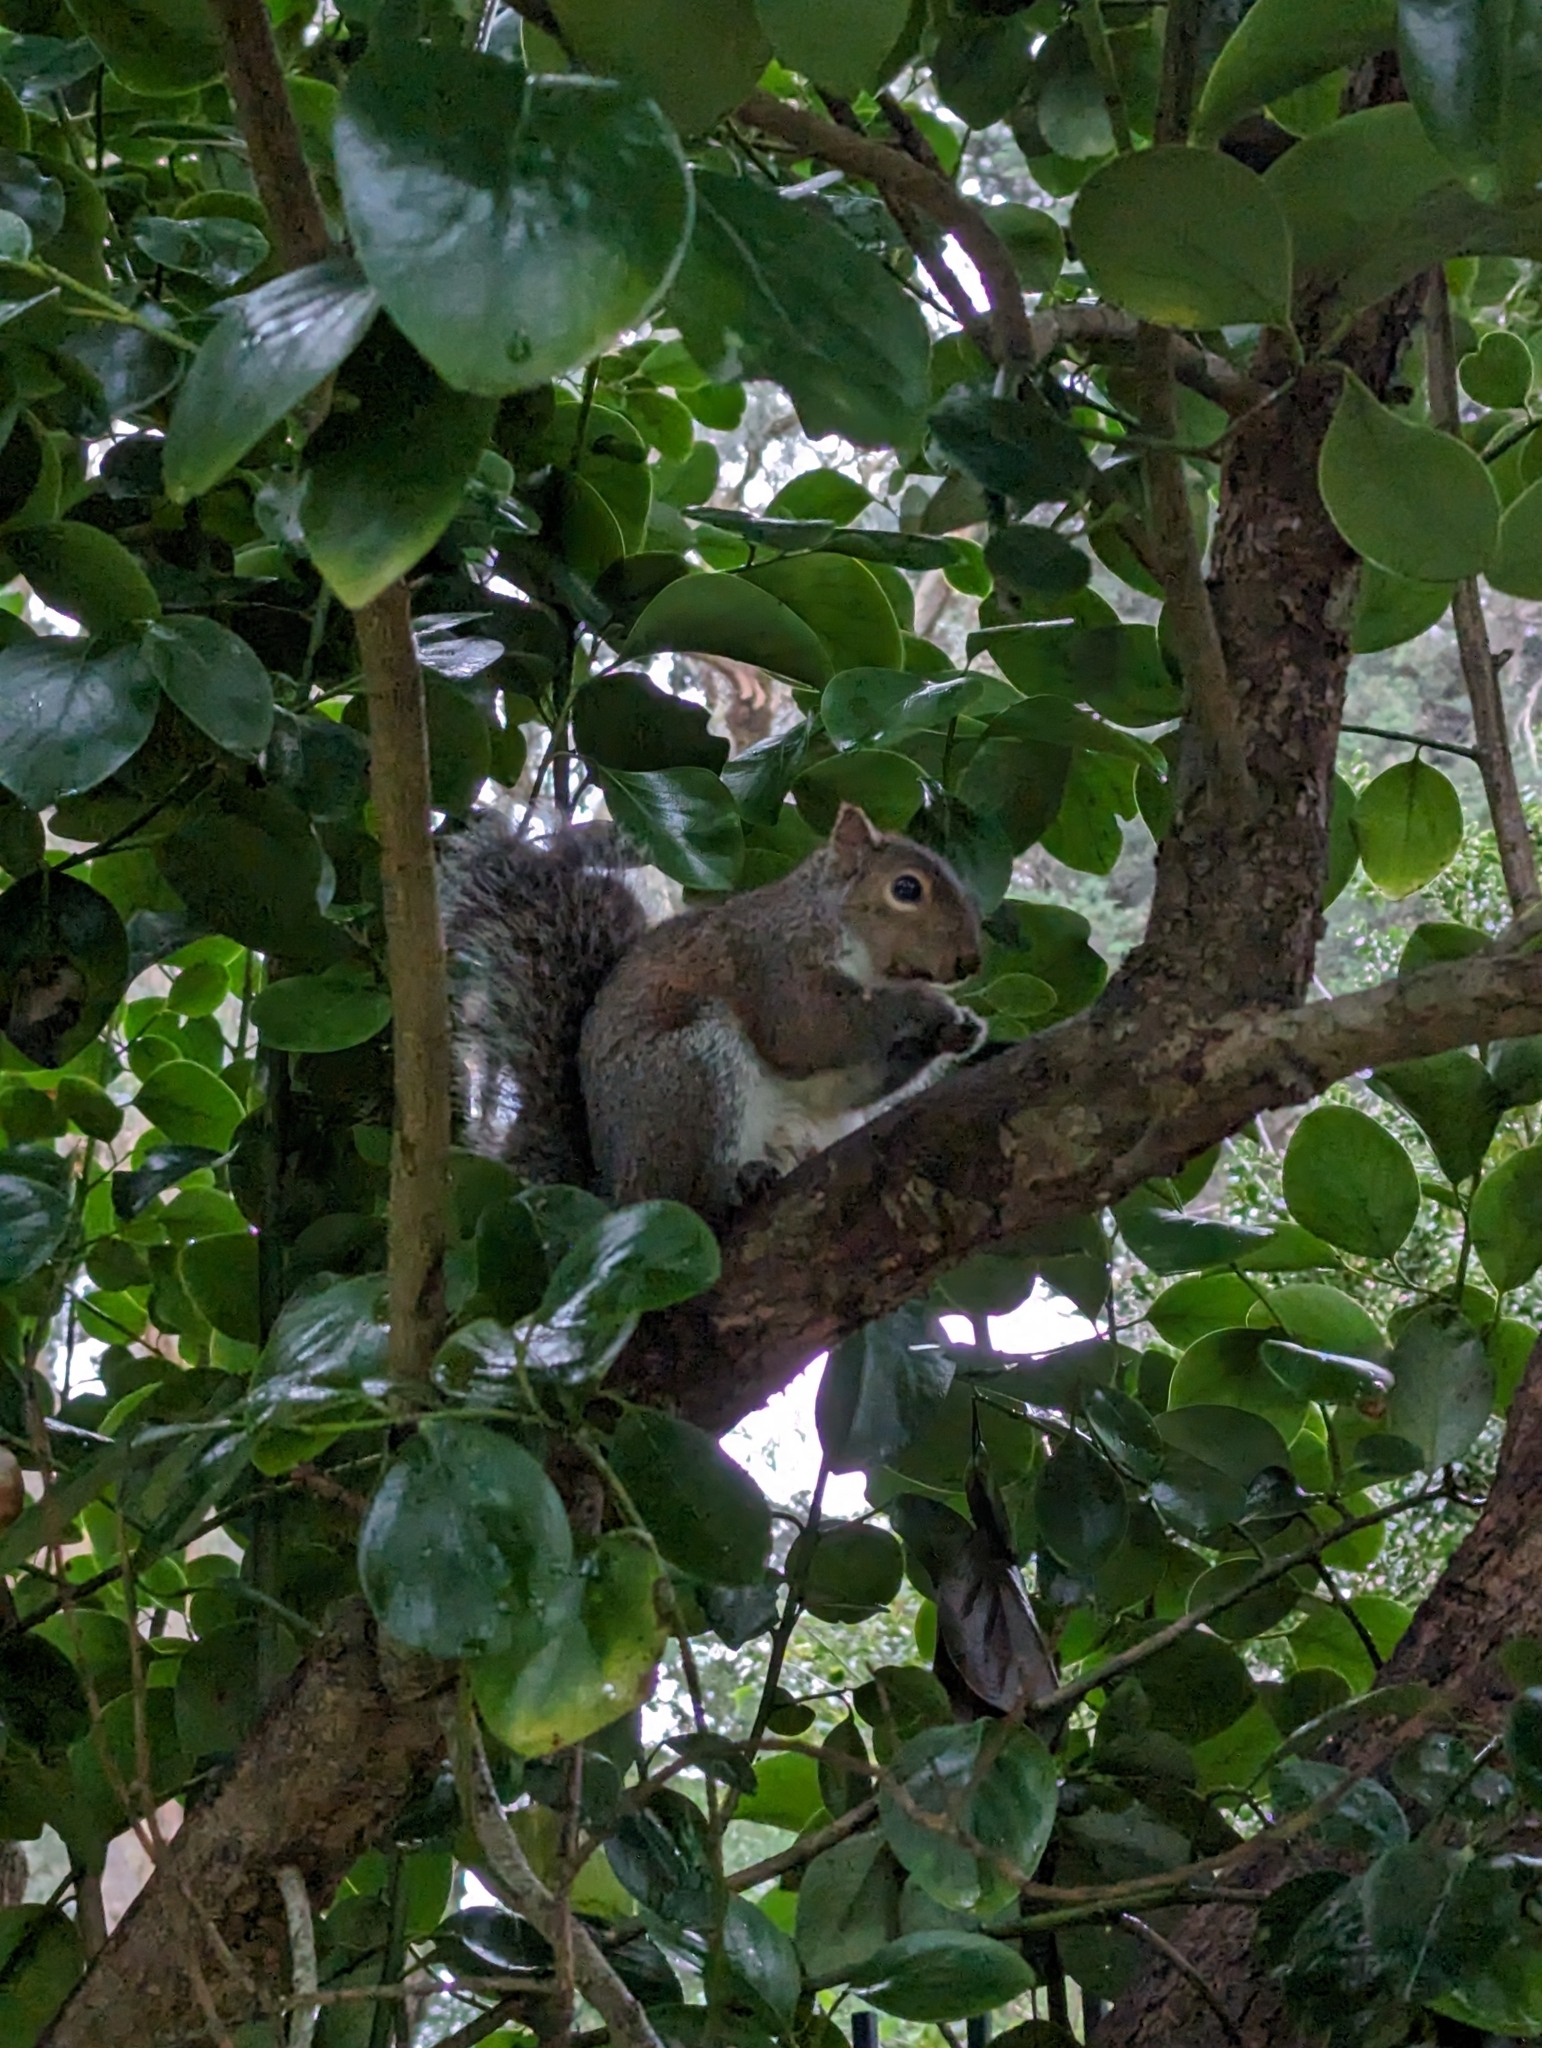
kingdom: Animalia
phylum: Chordata
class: Mammalia
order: Rodentia
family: Sciuridae
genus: Sciurus
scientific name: Sciurus carolinensis
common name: Eastern gray squirrel
